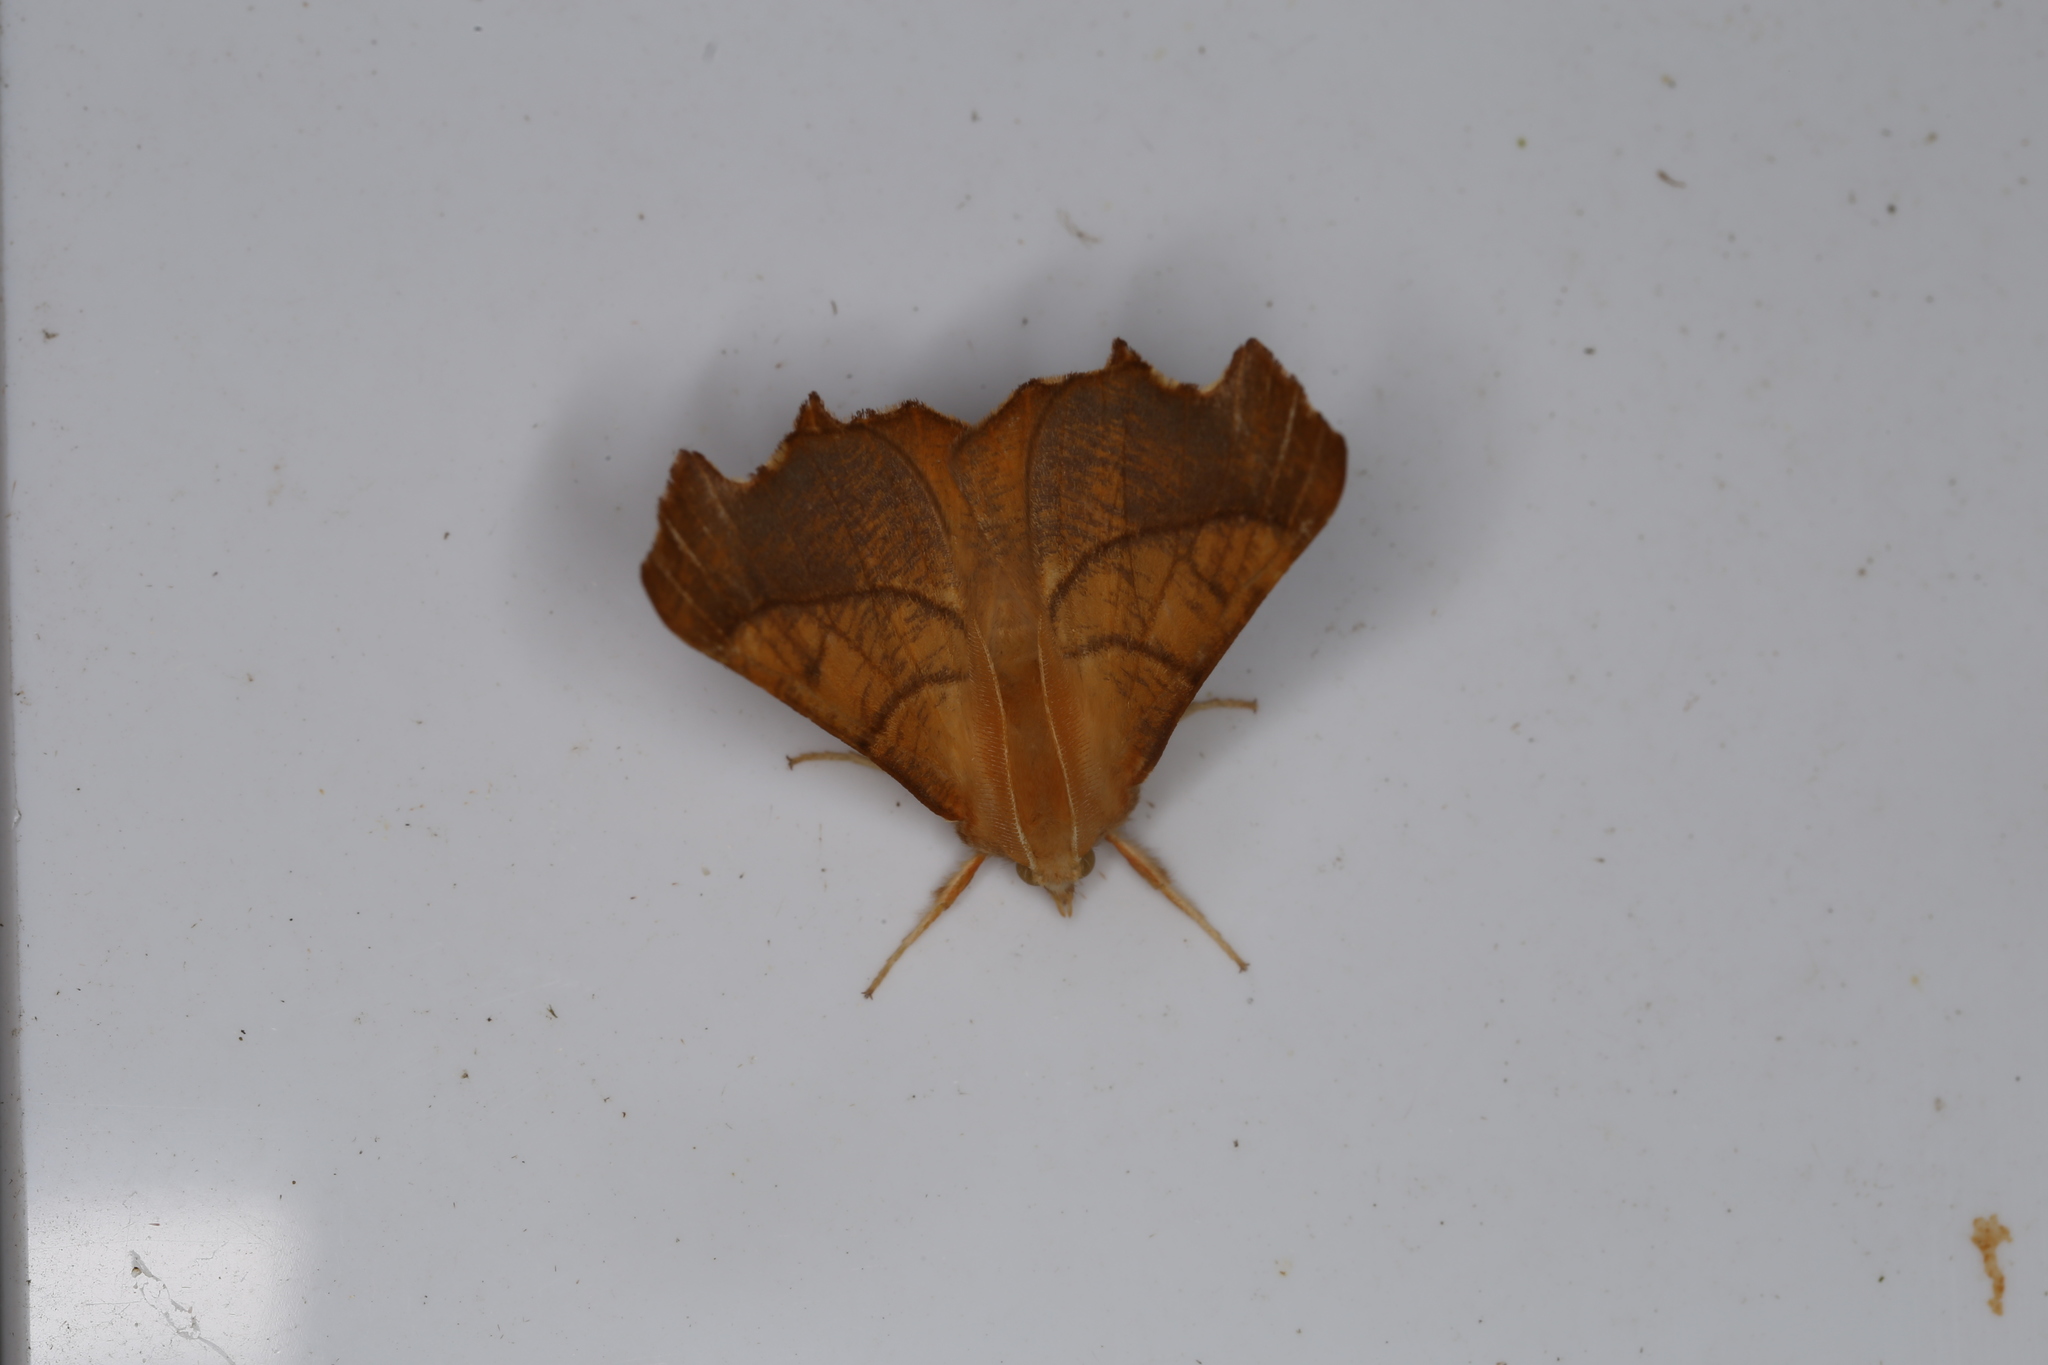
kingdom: Animalia
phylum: Arthropoda
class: Insecta
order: Lepidoptera
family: Geometridae
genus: Ennomos
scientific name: Ennomos fuscantaria
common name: Dusky thorn
